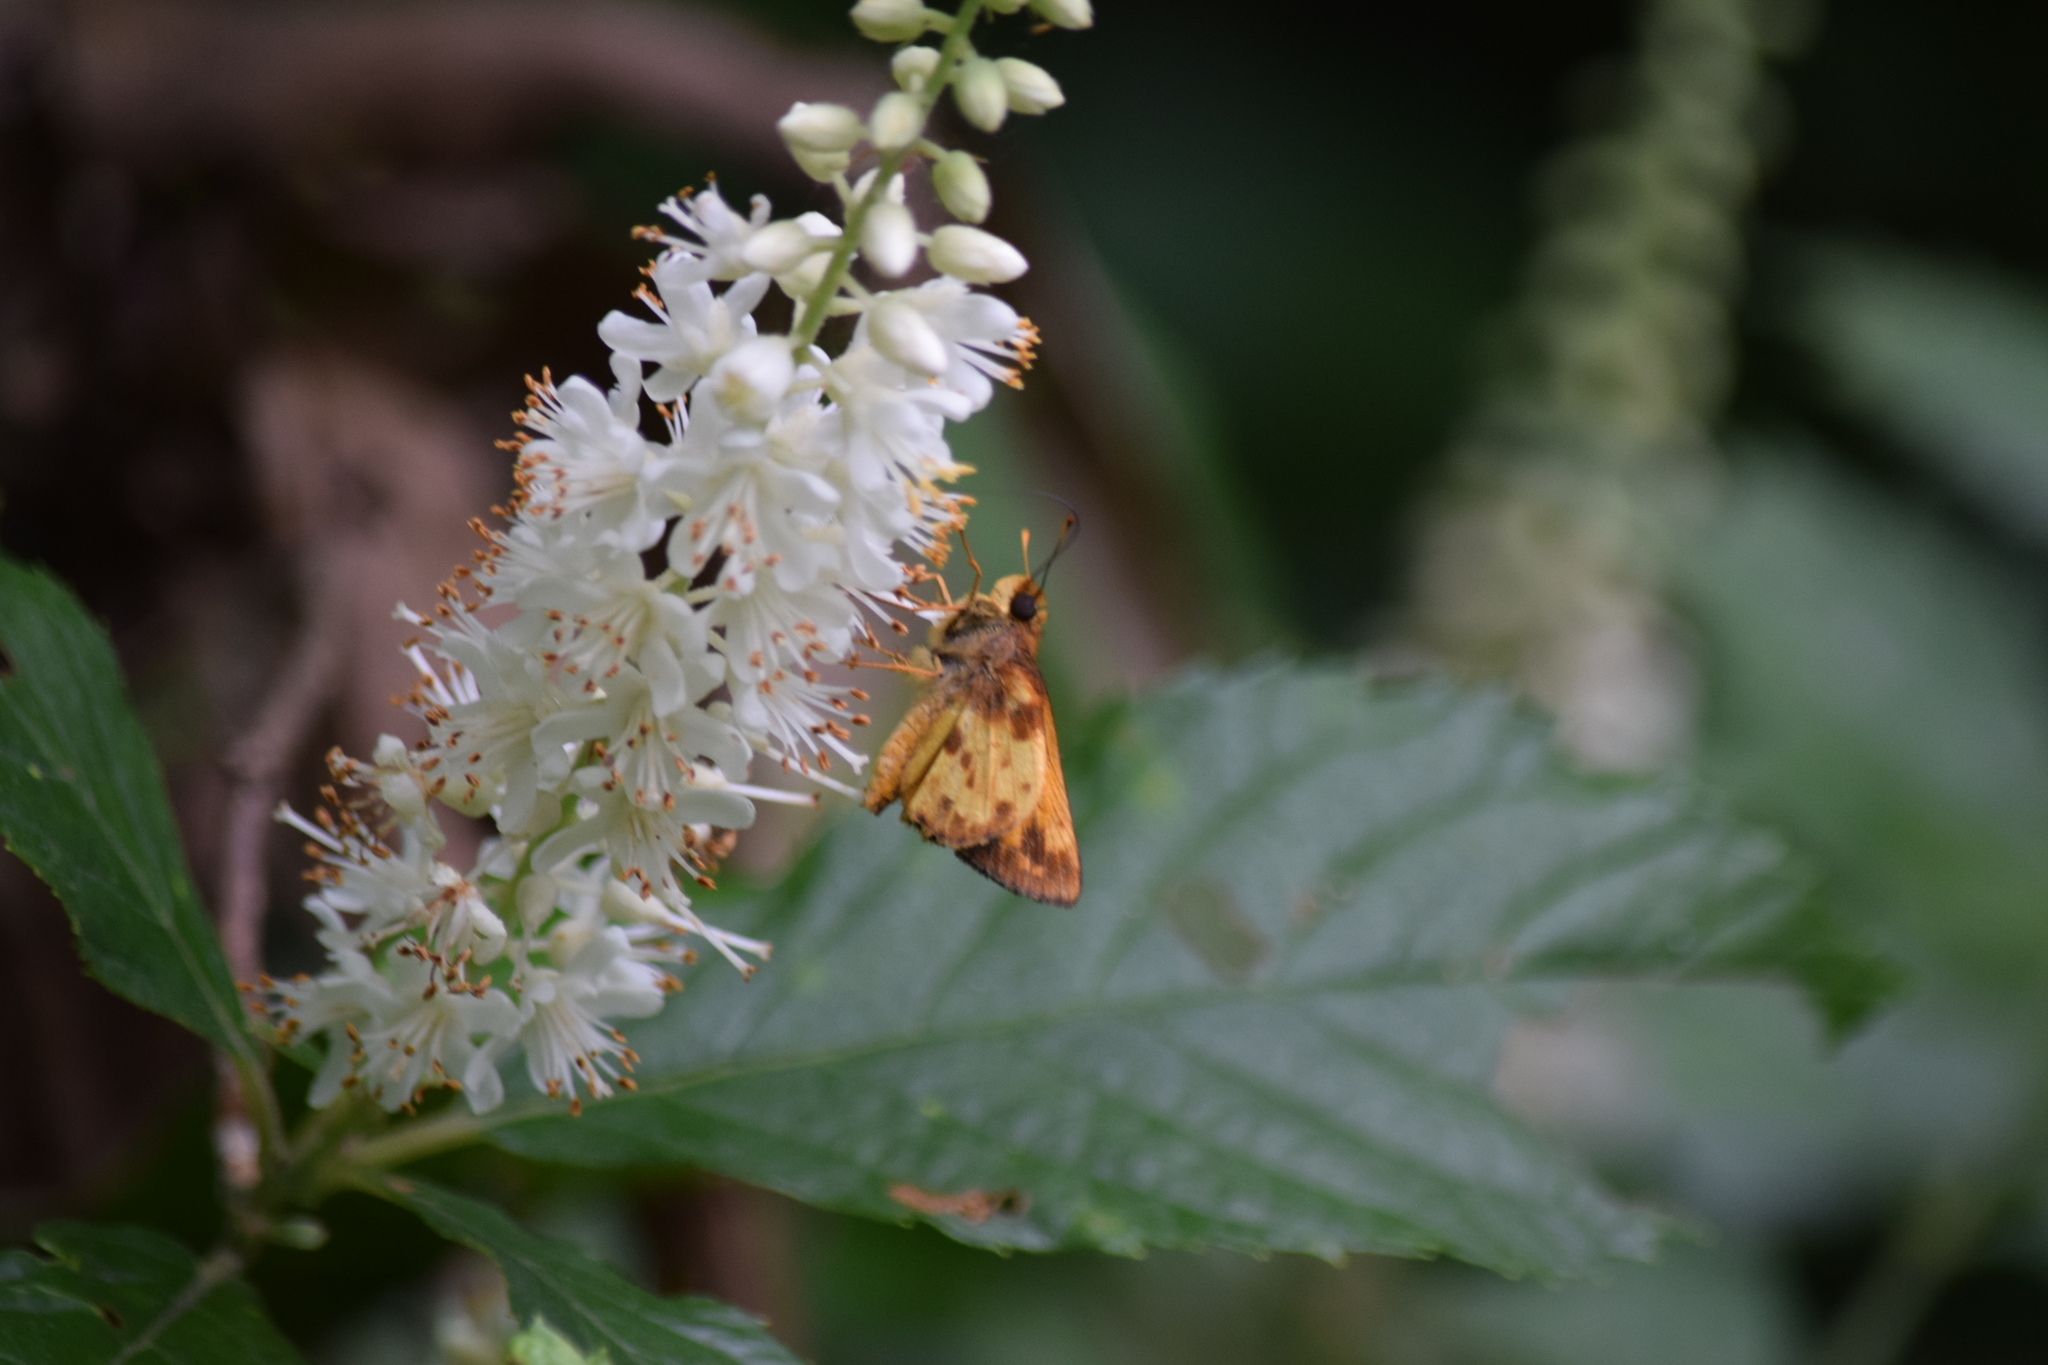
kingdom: Animalia
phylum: Arthropoda
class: Insecta
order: Lepidoptera
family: Hesperiidae
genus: Lon
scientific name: Lon zabulon
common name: Zabulon skipper
